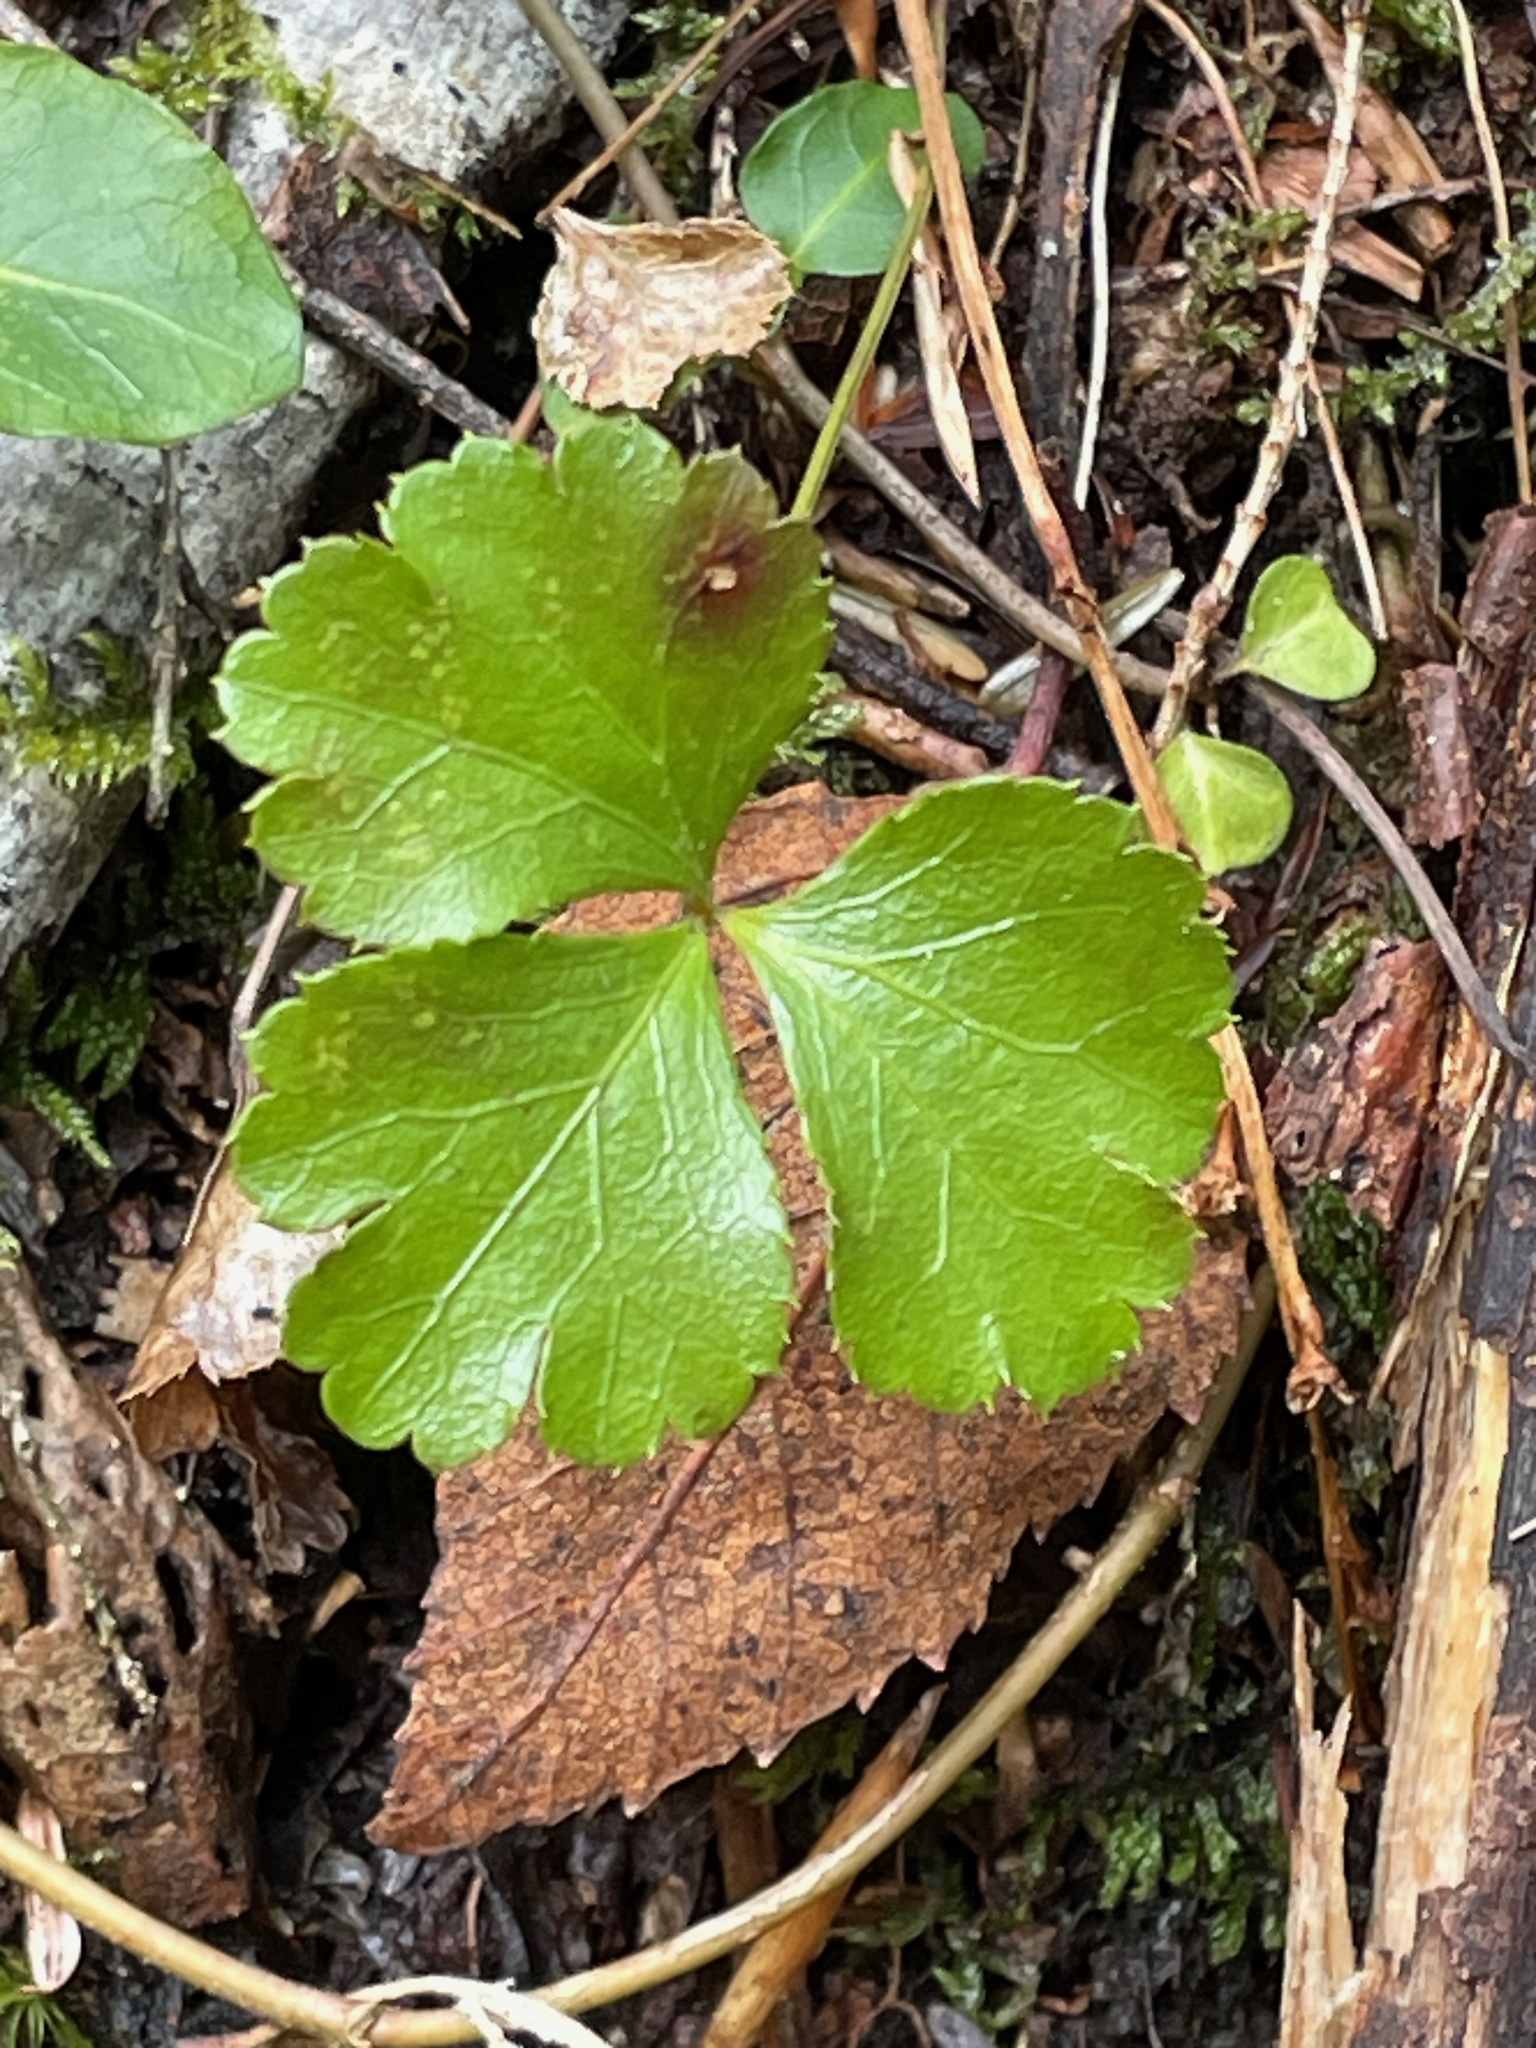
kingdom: Plantae
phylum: Tracheophyta
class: Magnoliopsida
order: Ranunculales
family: Ranunculaceae
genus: Coptis
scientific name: Coptis trifolia
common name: Canker-root
